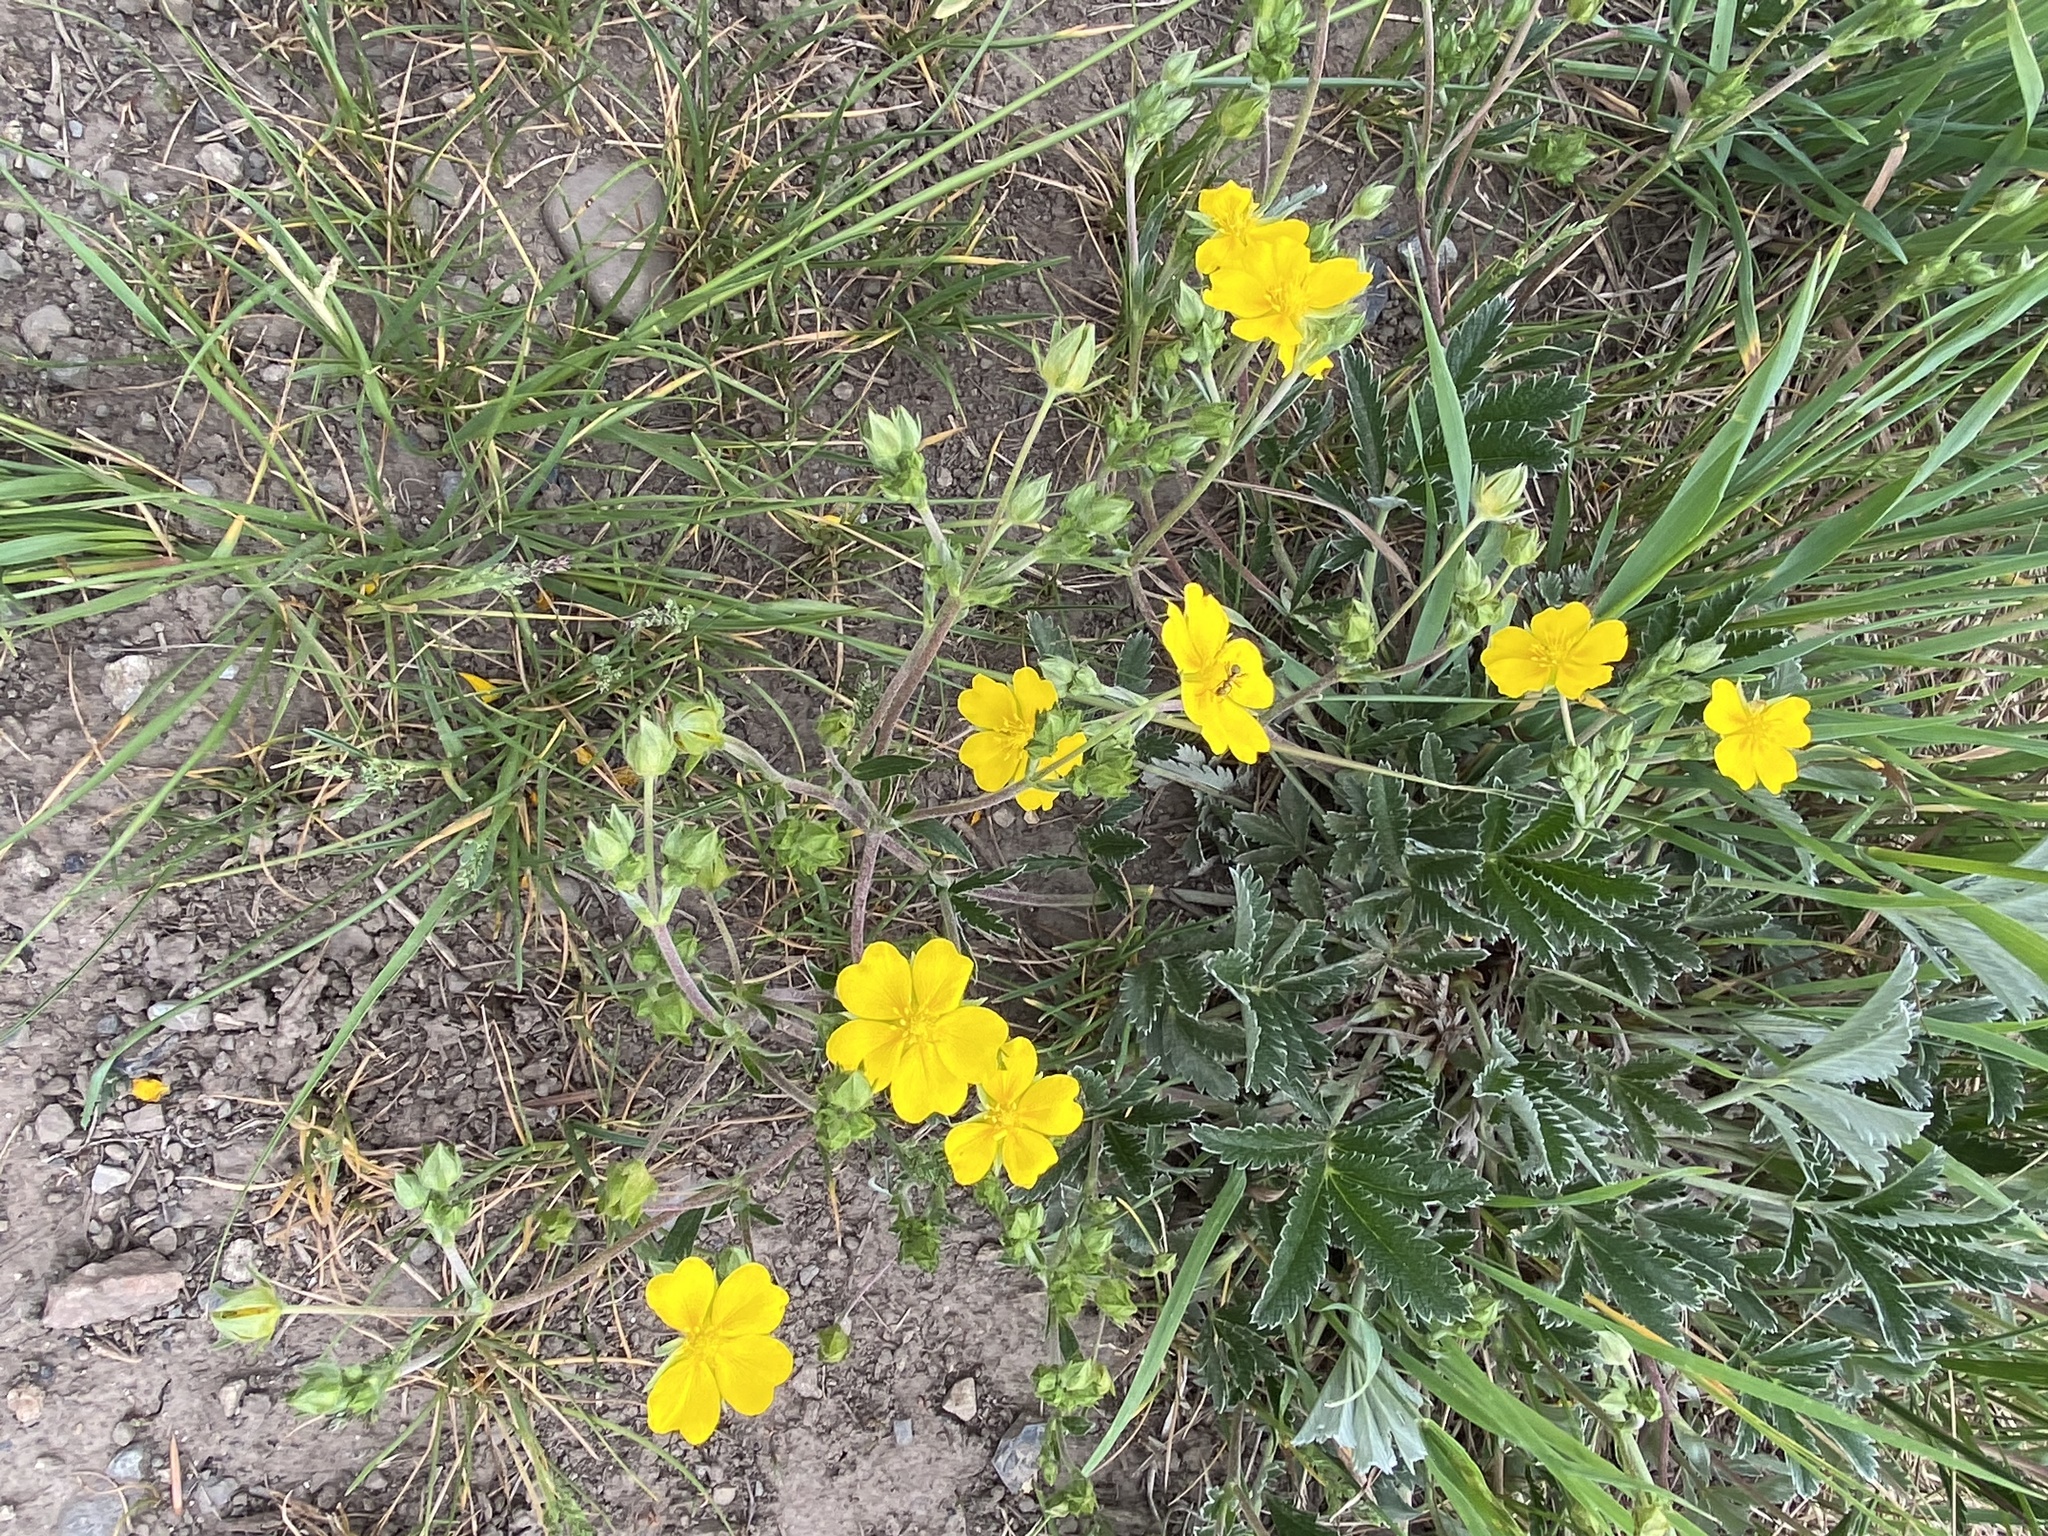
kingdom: Plantae
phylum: Tracheophyta
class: Magnoliopsida
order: Rosales
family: Rosaceae
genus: Potentilla
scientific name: Potentilla hippiana
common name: Woolly cinquefoil
